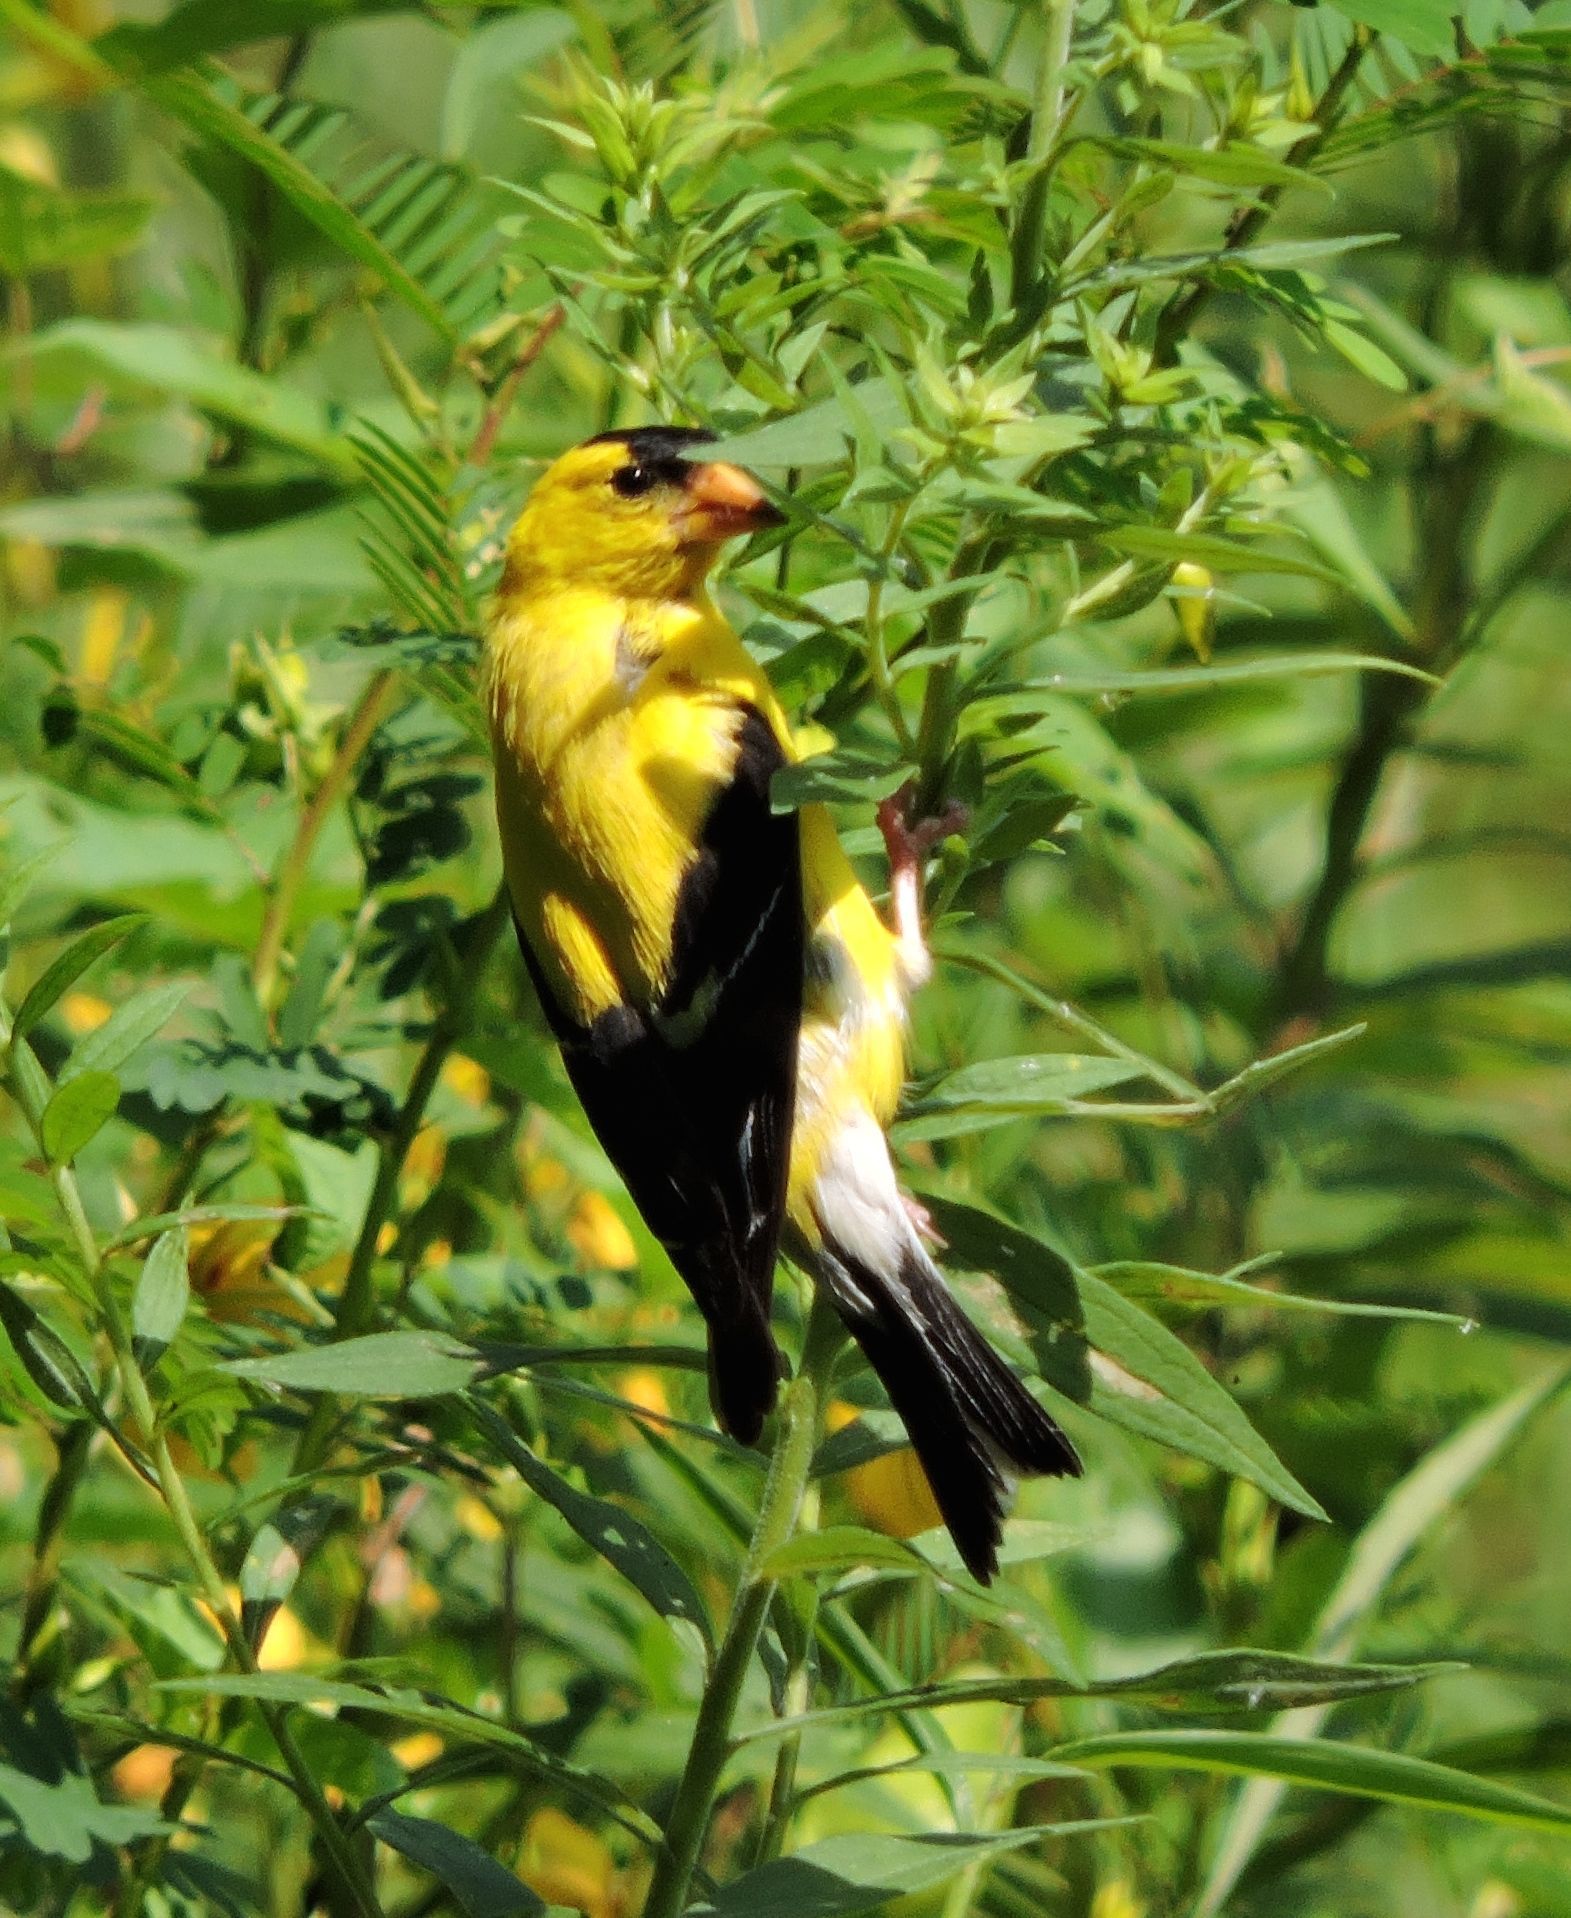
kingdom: Animalia
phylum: Chordata
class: Aves
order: Passeriformes
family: Fringillidae
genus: Spinus
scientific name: Spinus tristis
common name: American goldfinch
